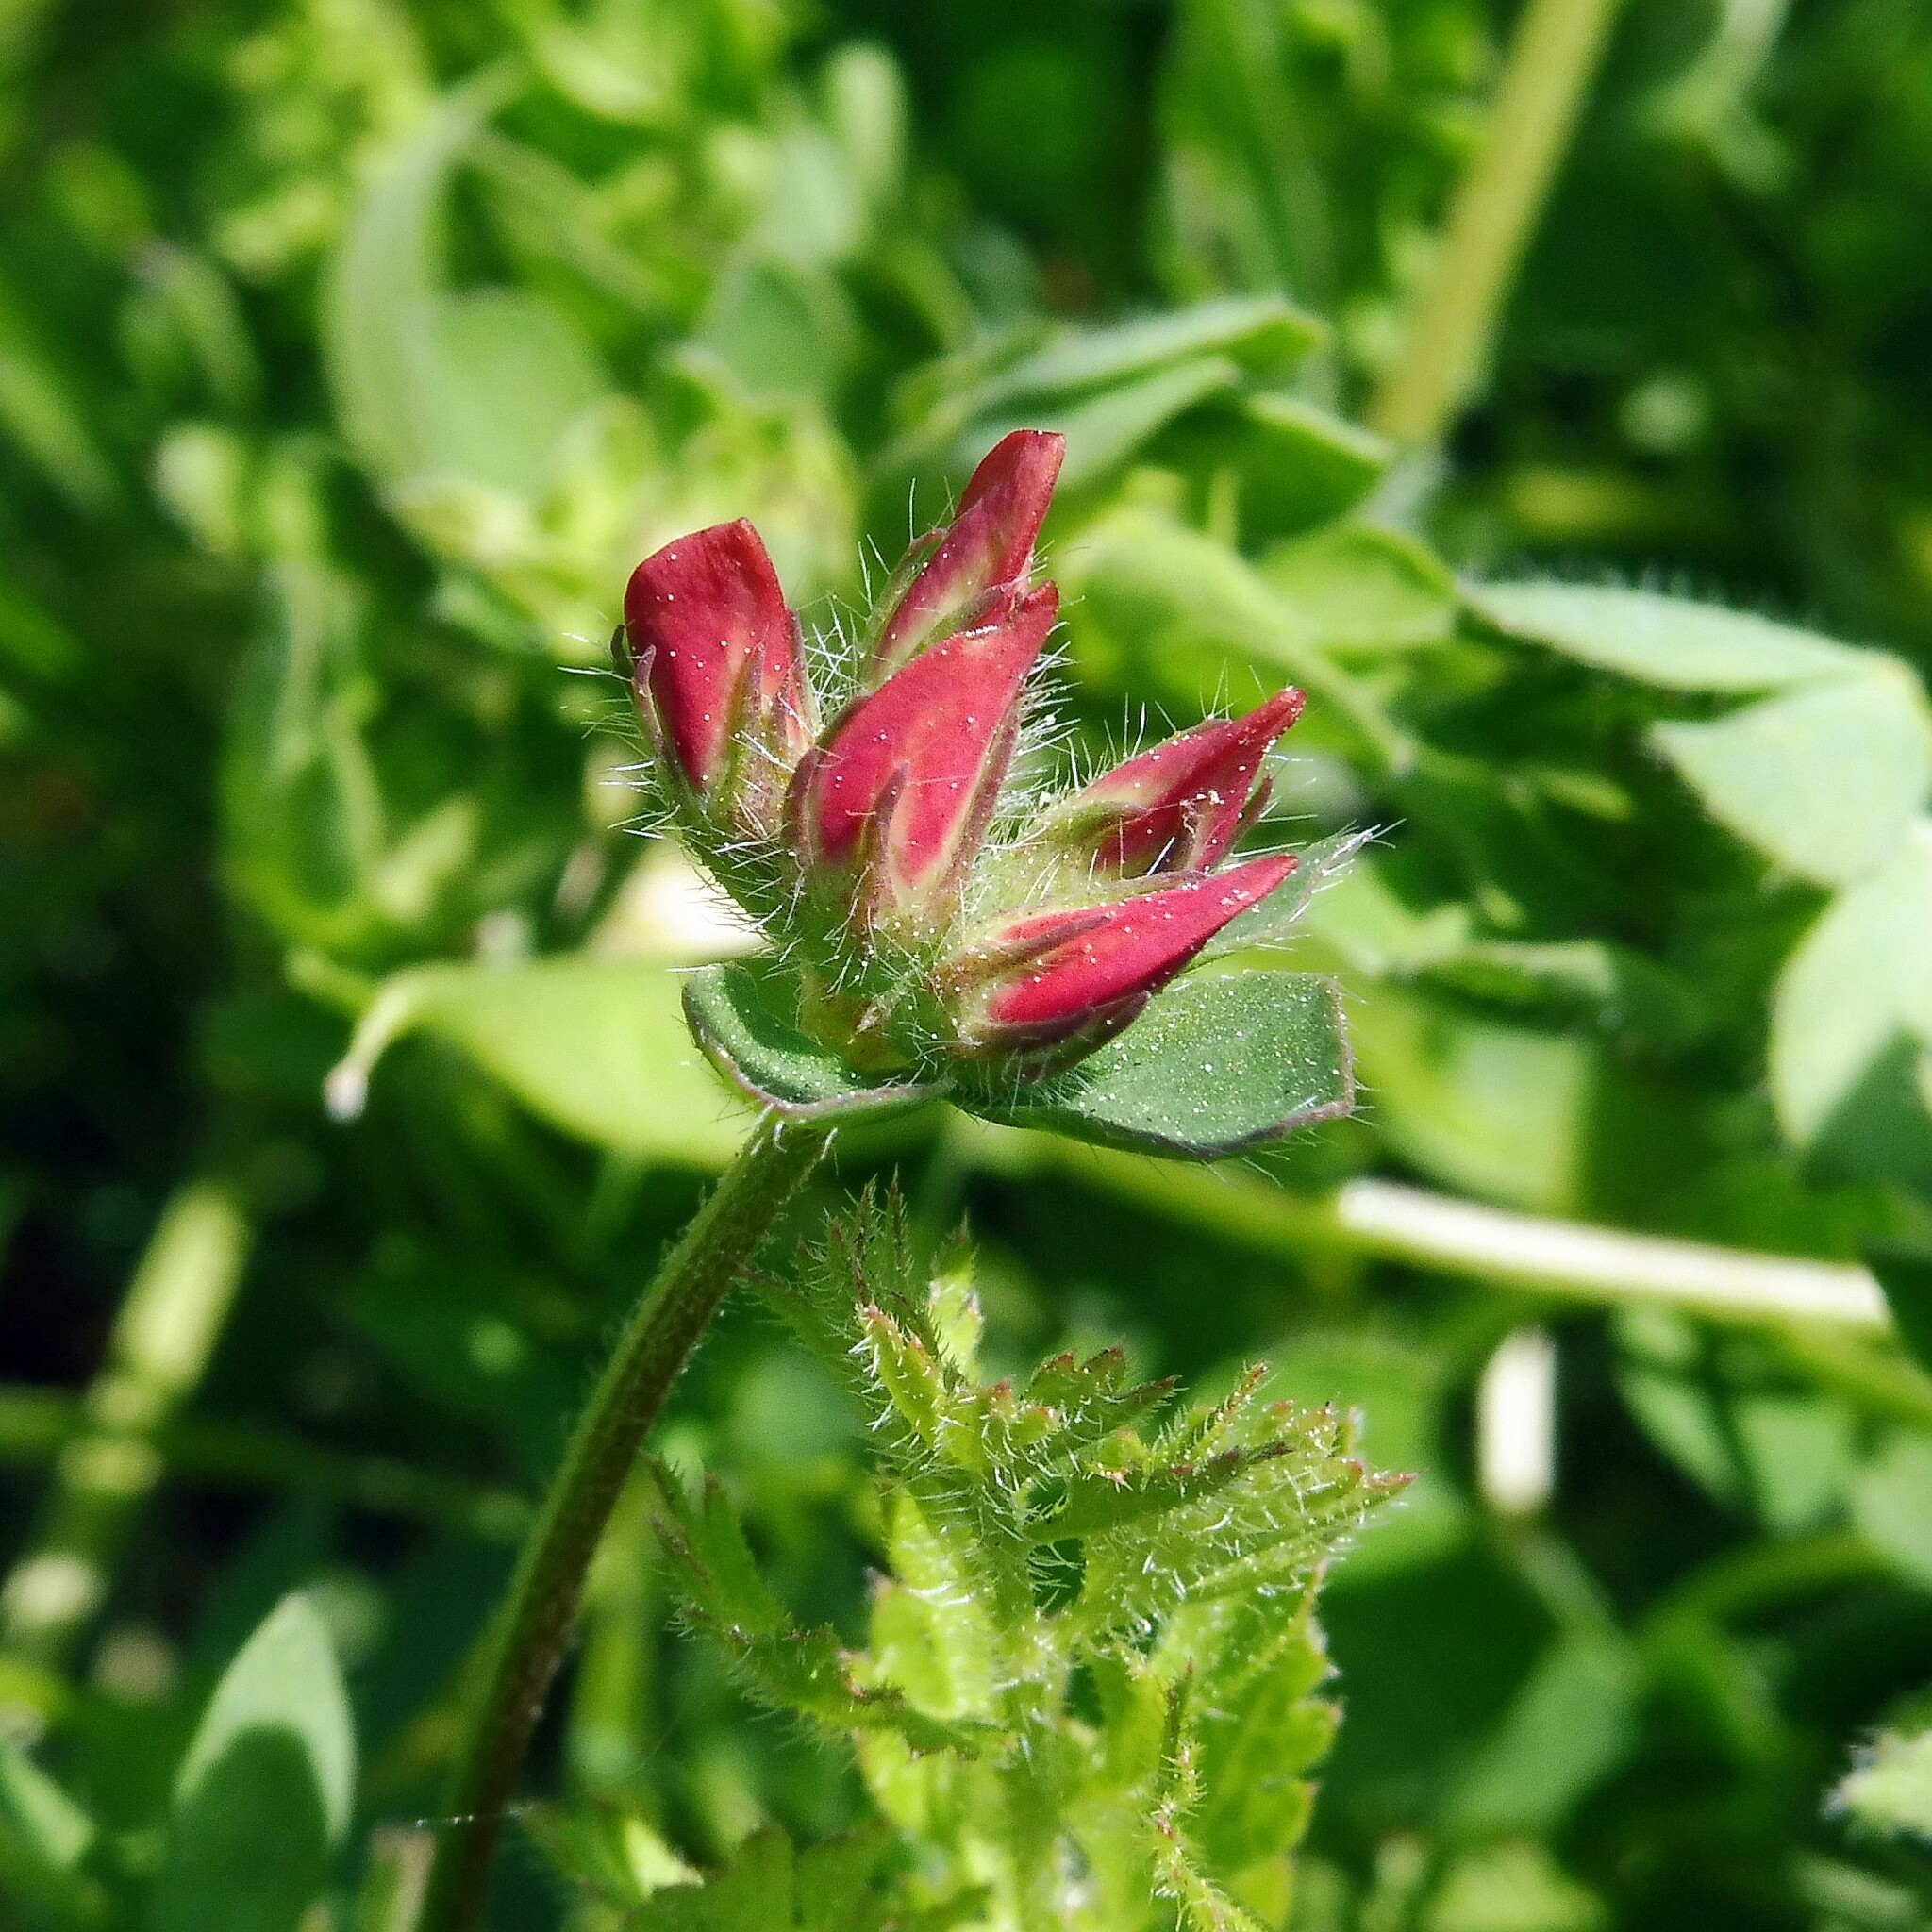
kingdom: Plantae
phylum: Tracheophyta
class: Magnoliopsida
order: Fabales
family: Fabaceae
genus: Lotus
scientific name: Lotus corniculatus
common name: Common bird's-foot-trefoil
